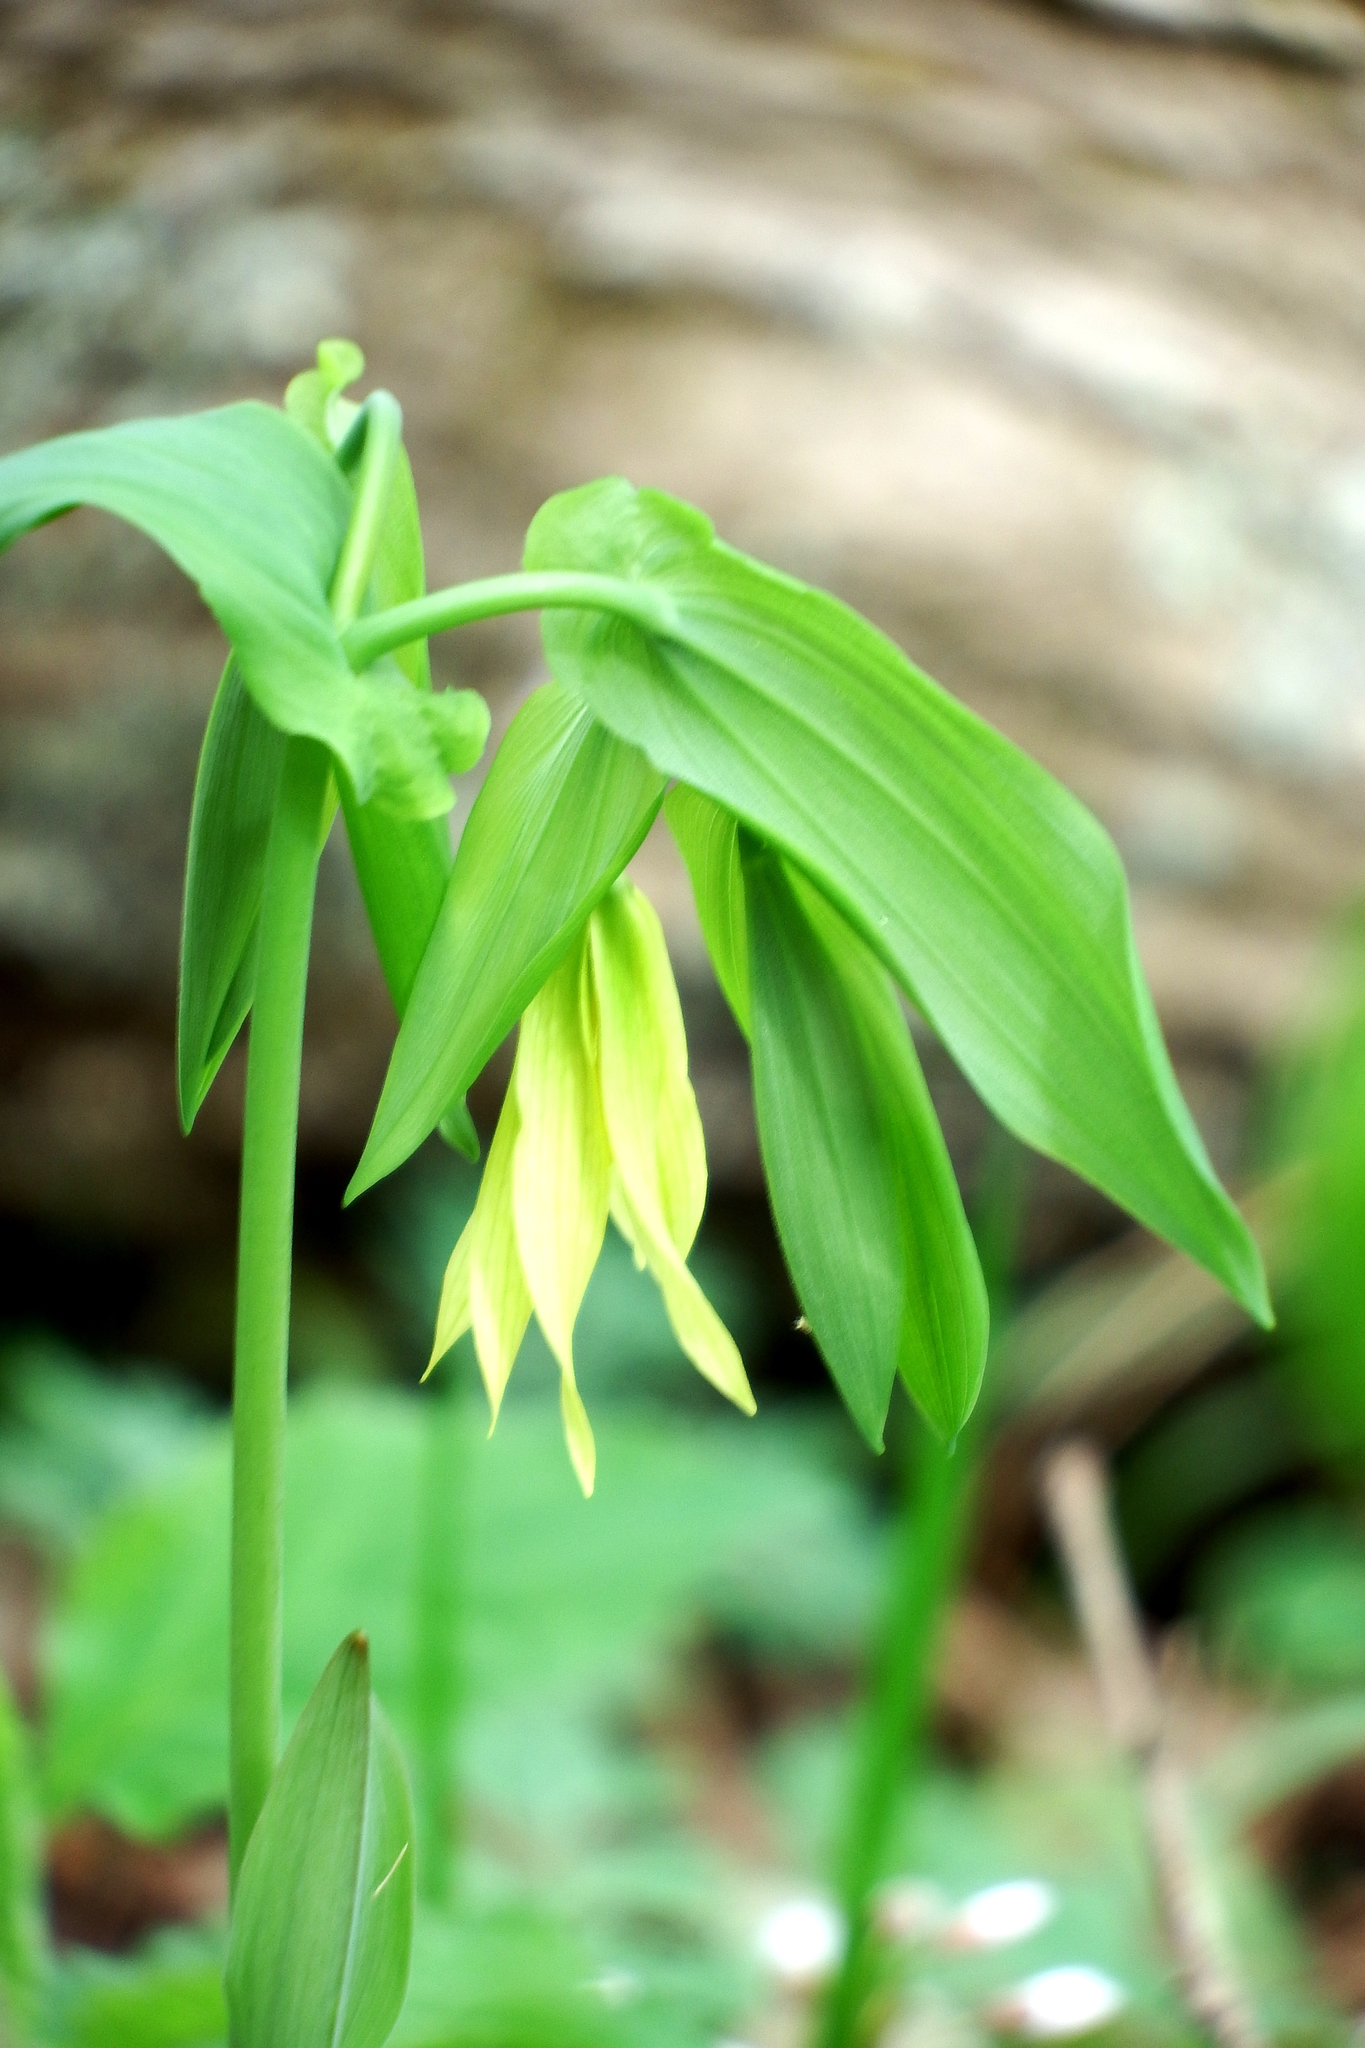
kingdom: Plantae
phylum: Tracheophyta
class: Liliopsida
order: Liliales
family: Colchicaceae
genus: Uvularia
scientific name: Uvularia grandiflora
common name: Bellwort
